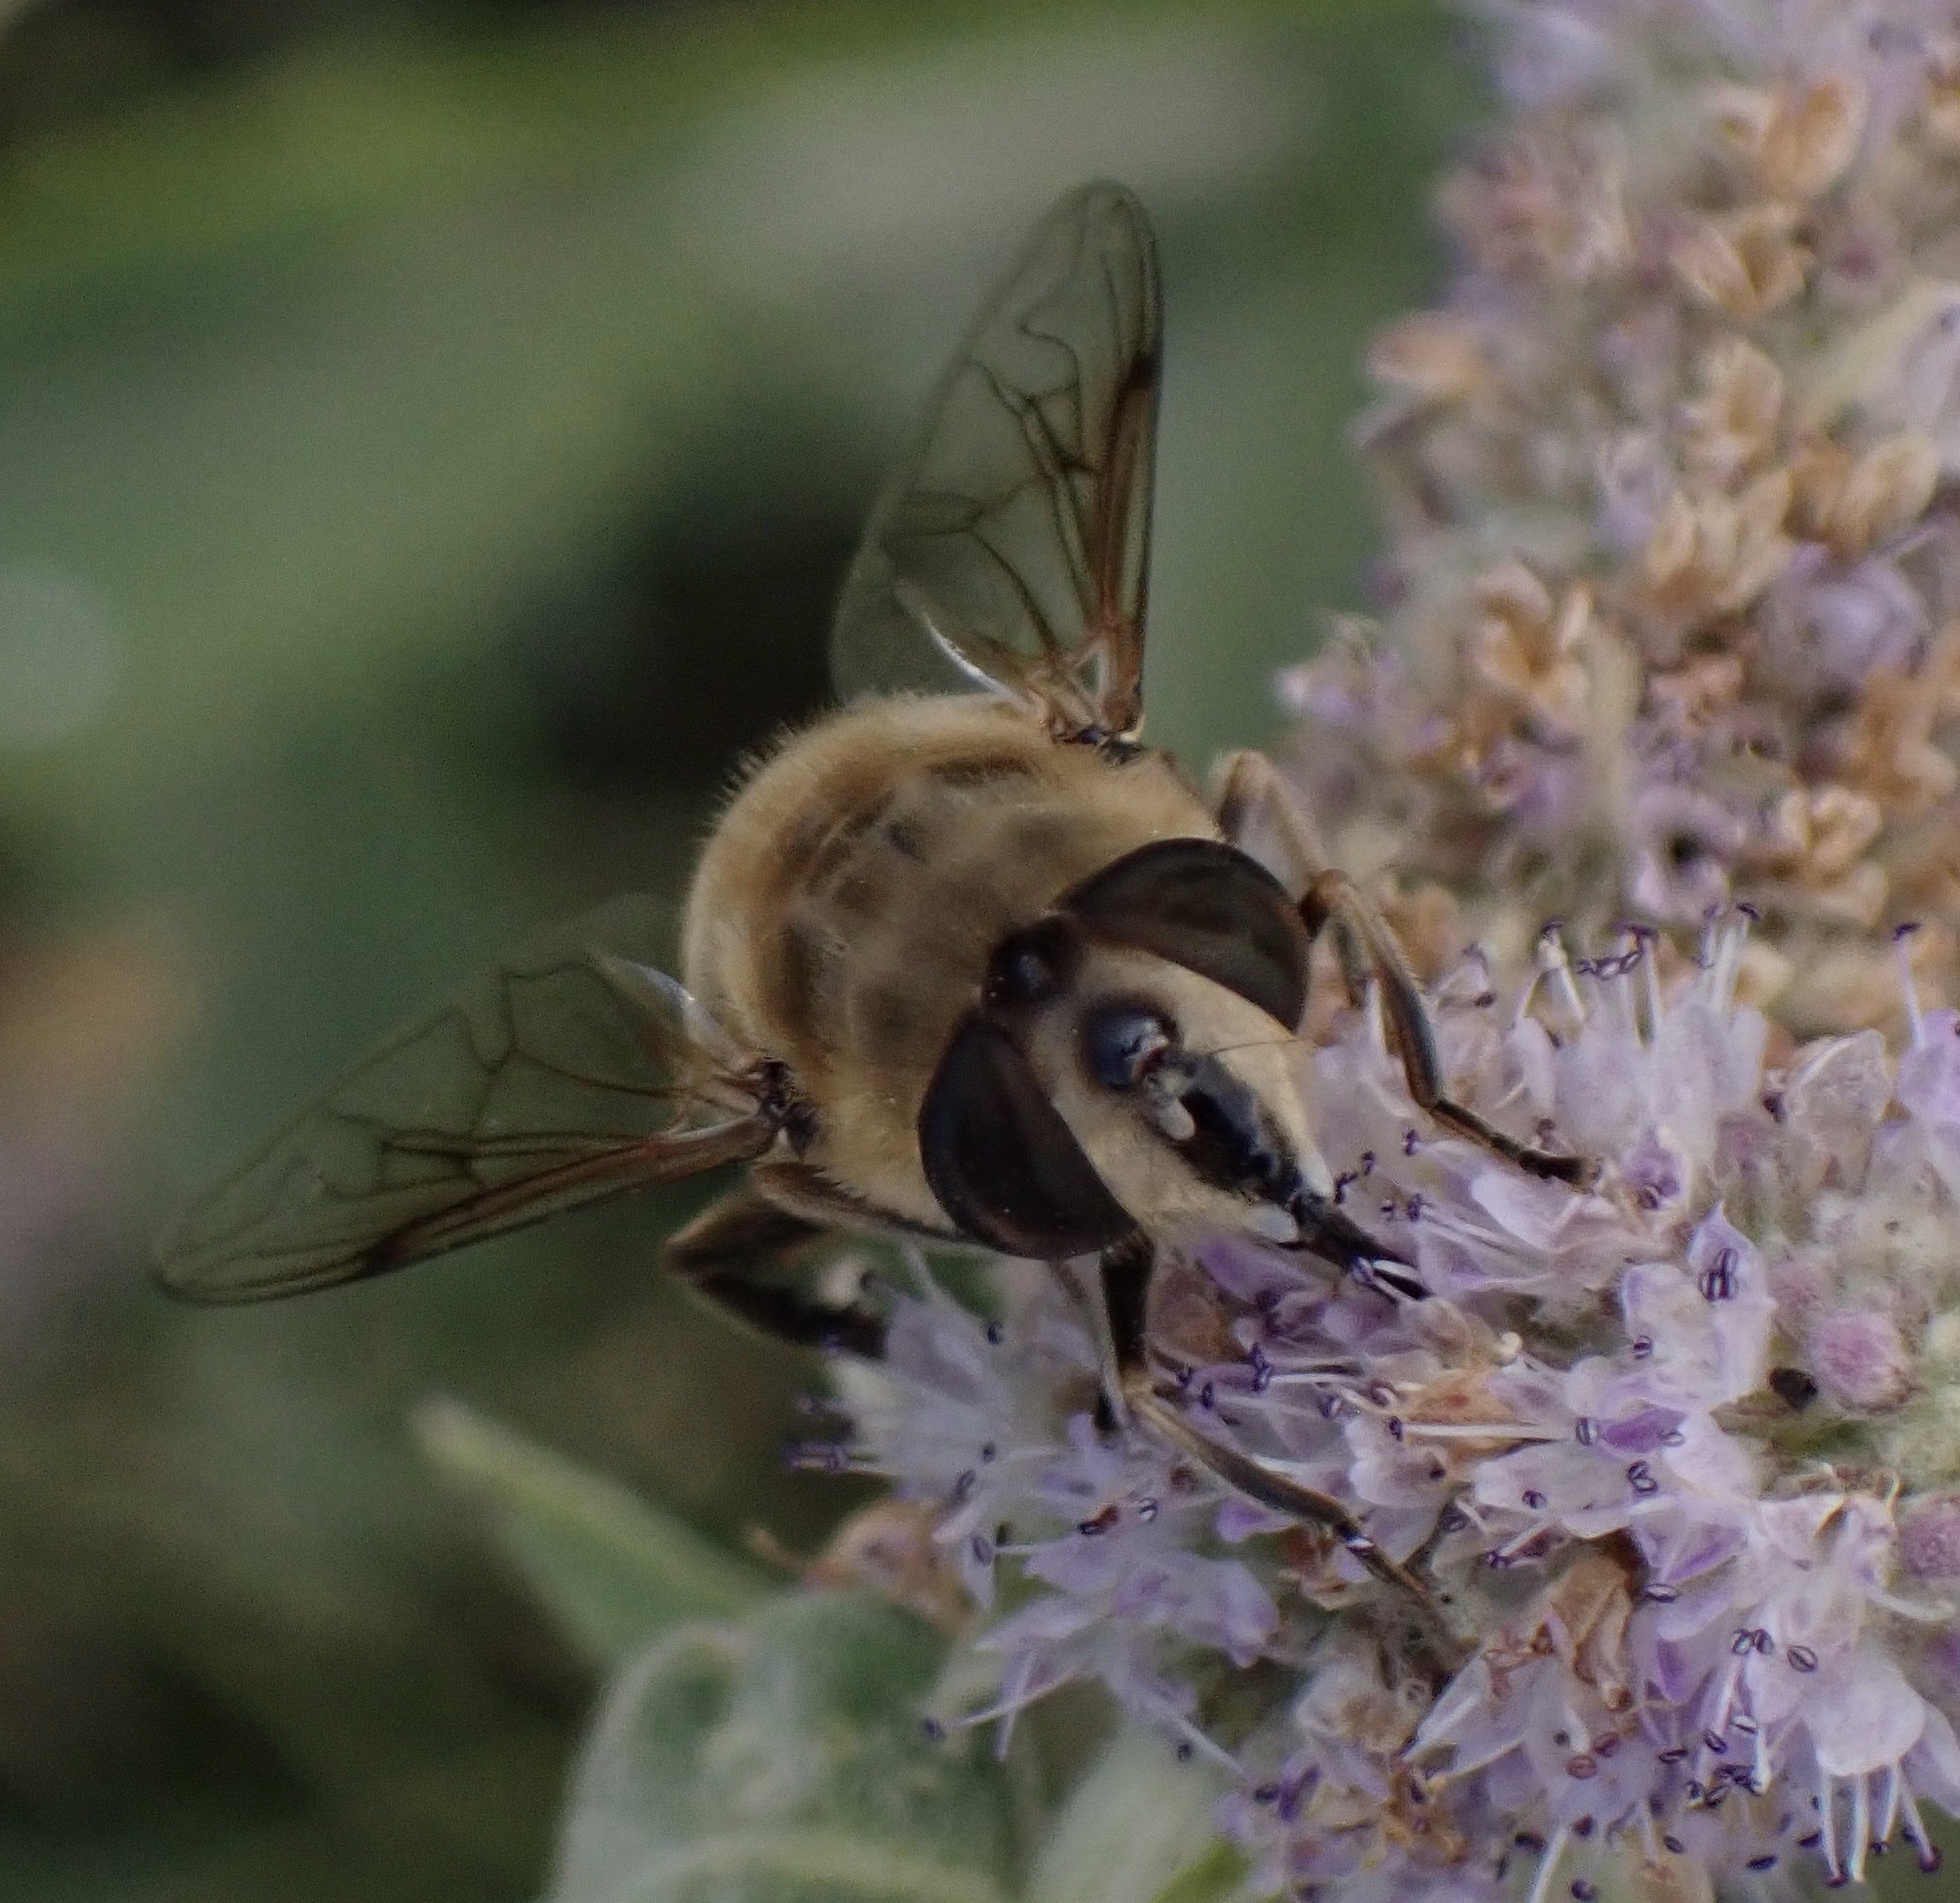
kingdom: Animalia
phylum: Arthropoda
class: Insecta
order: Diptera
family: Syrphidae
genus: Eristalis
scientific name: Eristalis tenax
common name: Drone fly
